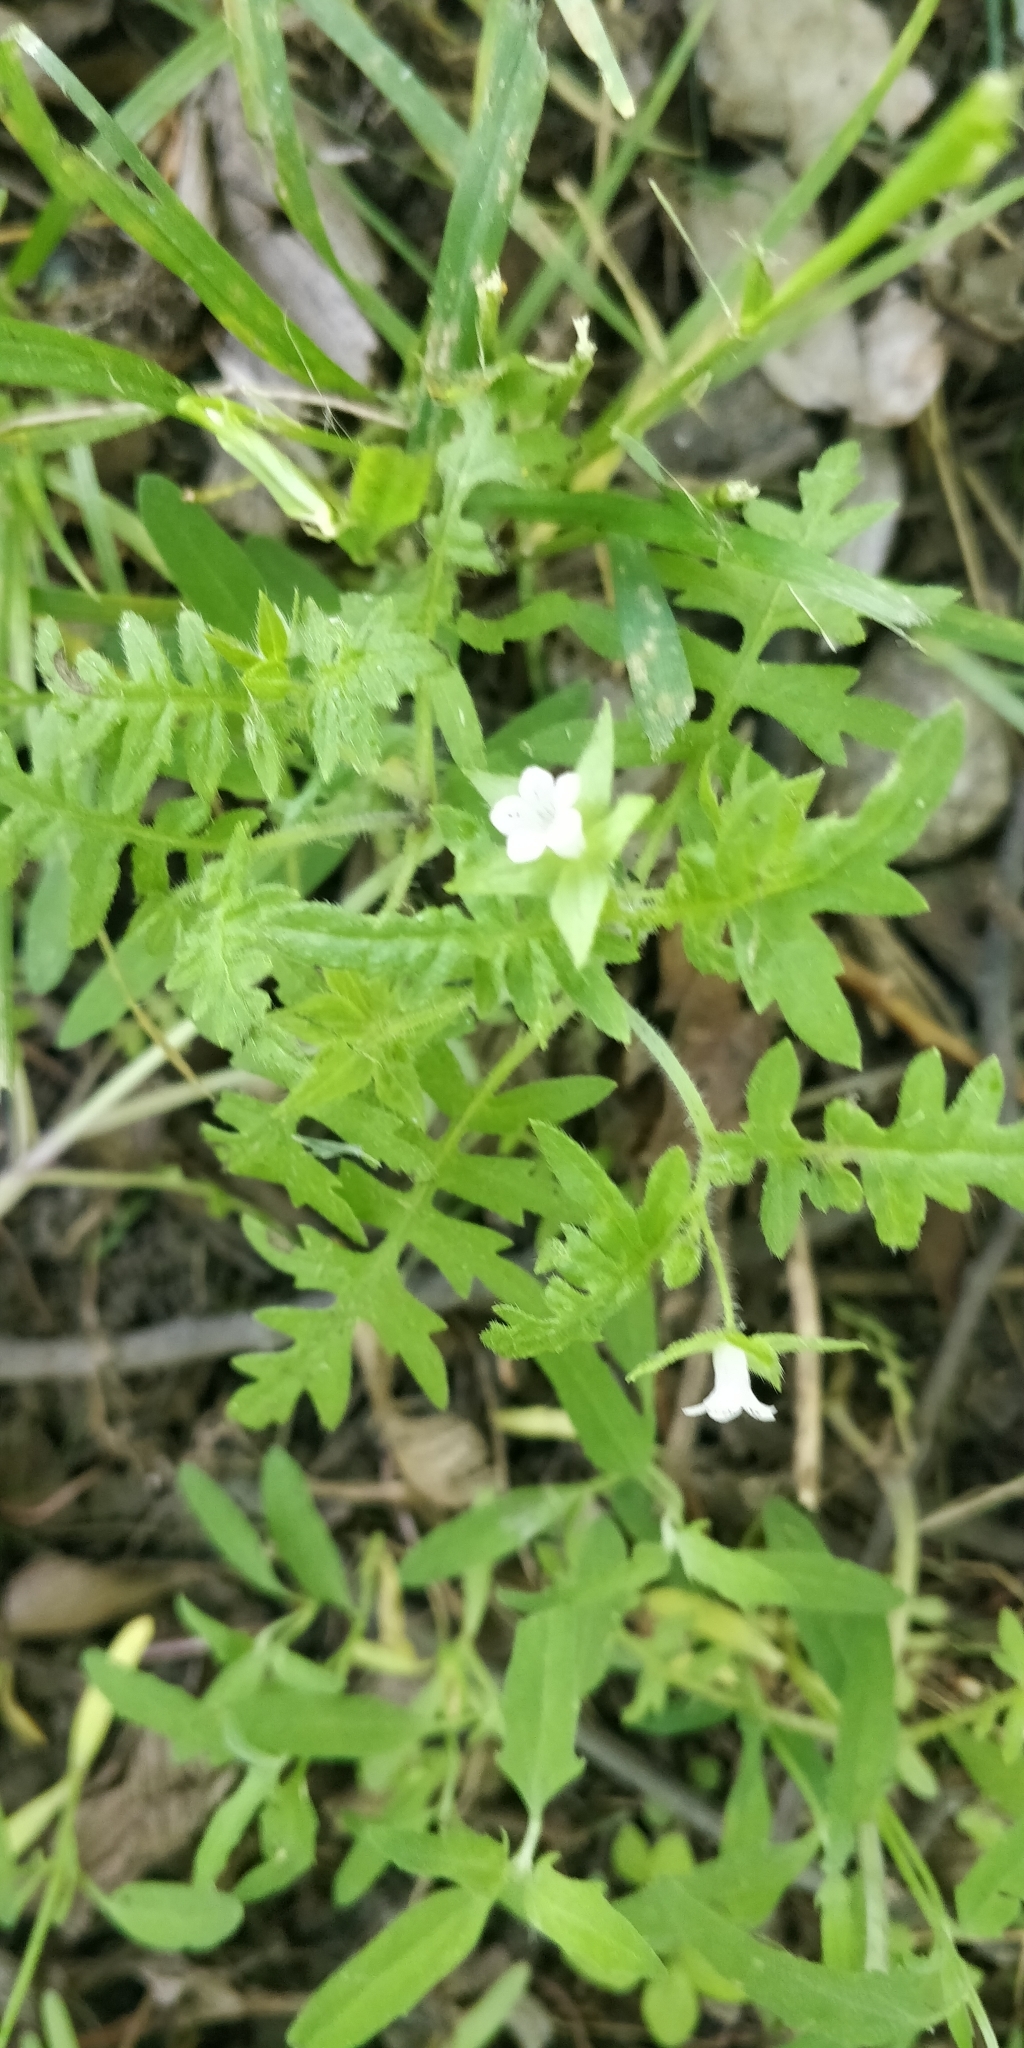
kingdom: Plantae
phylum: Tracheophyta
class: Magnoliopsida
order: Boraginales
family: Hydrophyllaceae
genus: Ellisia
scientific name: Ellisia nyctelea
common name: Aunt lucy
